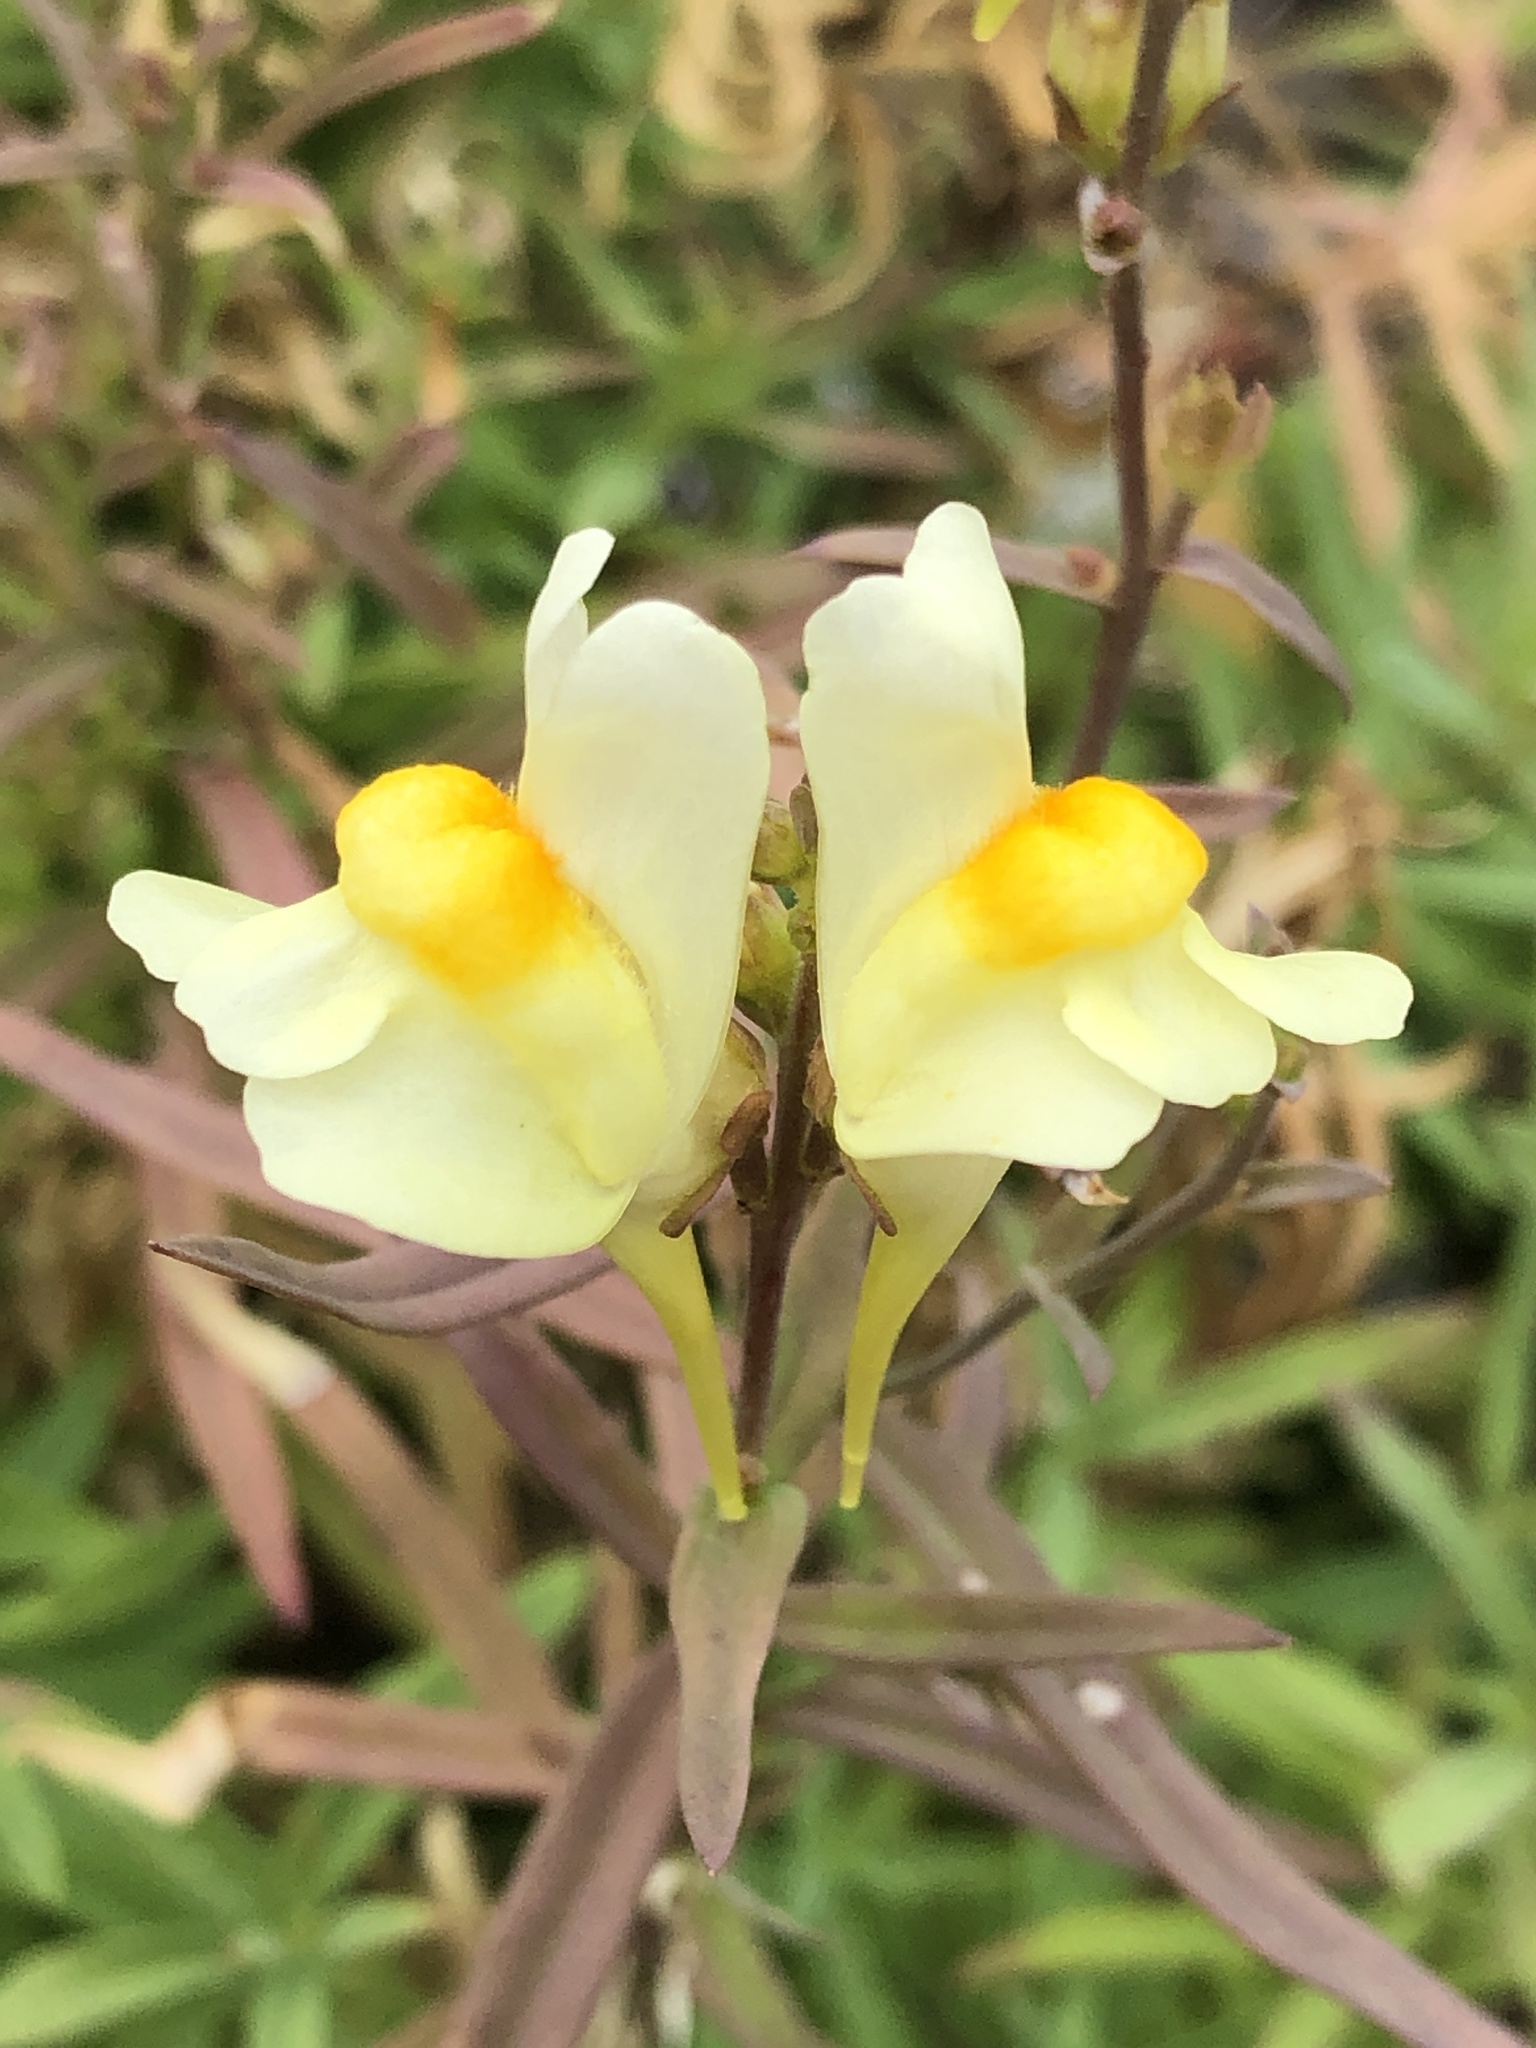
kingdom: Plantae
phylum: Tracheophyta
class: Magnoliopsida
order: Lamiales
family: Plantaginaceae
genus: Linaria
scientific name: Linaria vulgaris
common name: Butter and eggs
